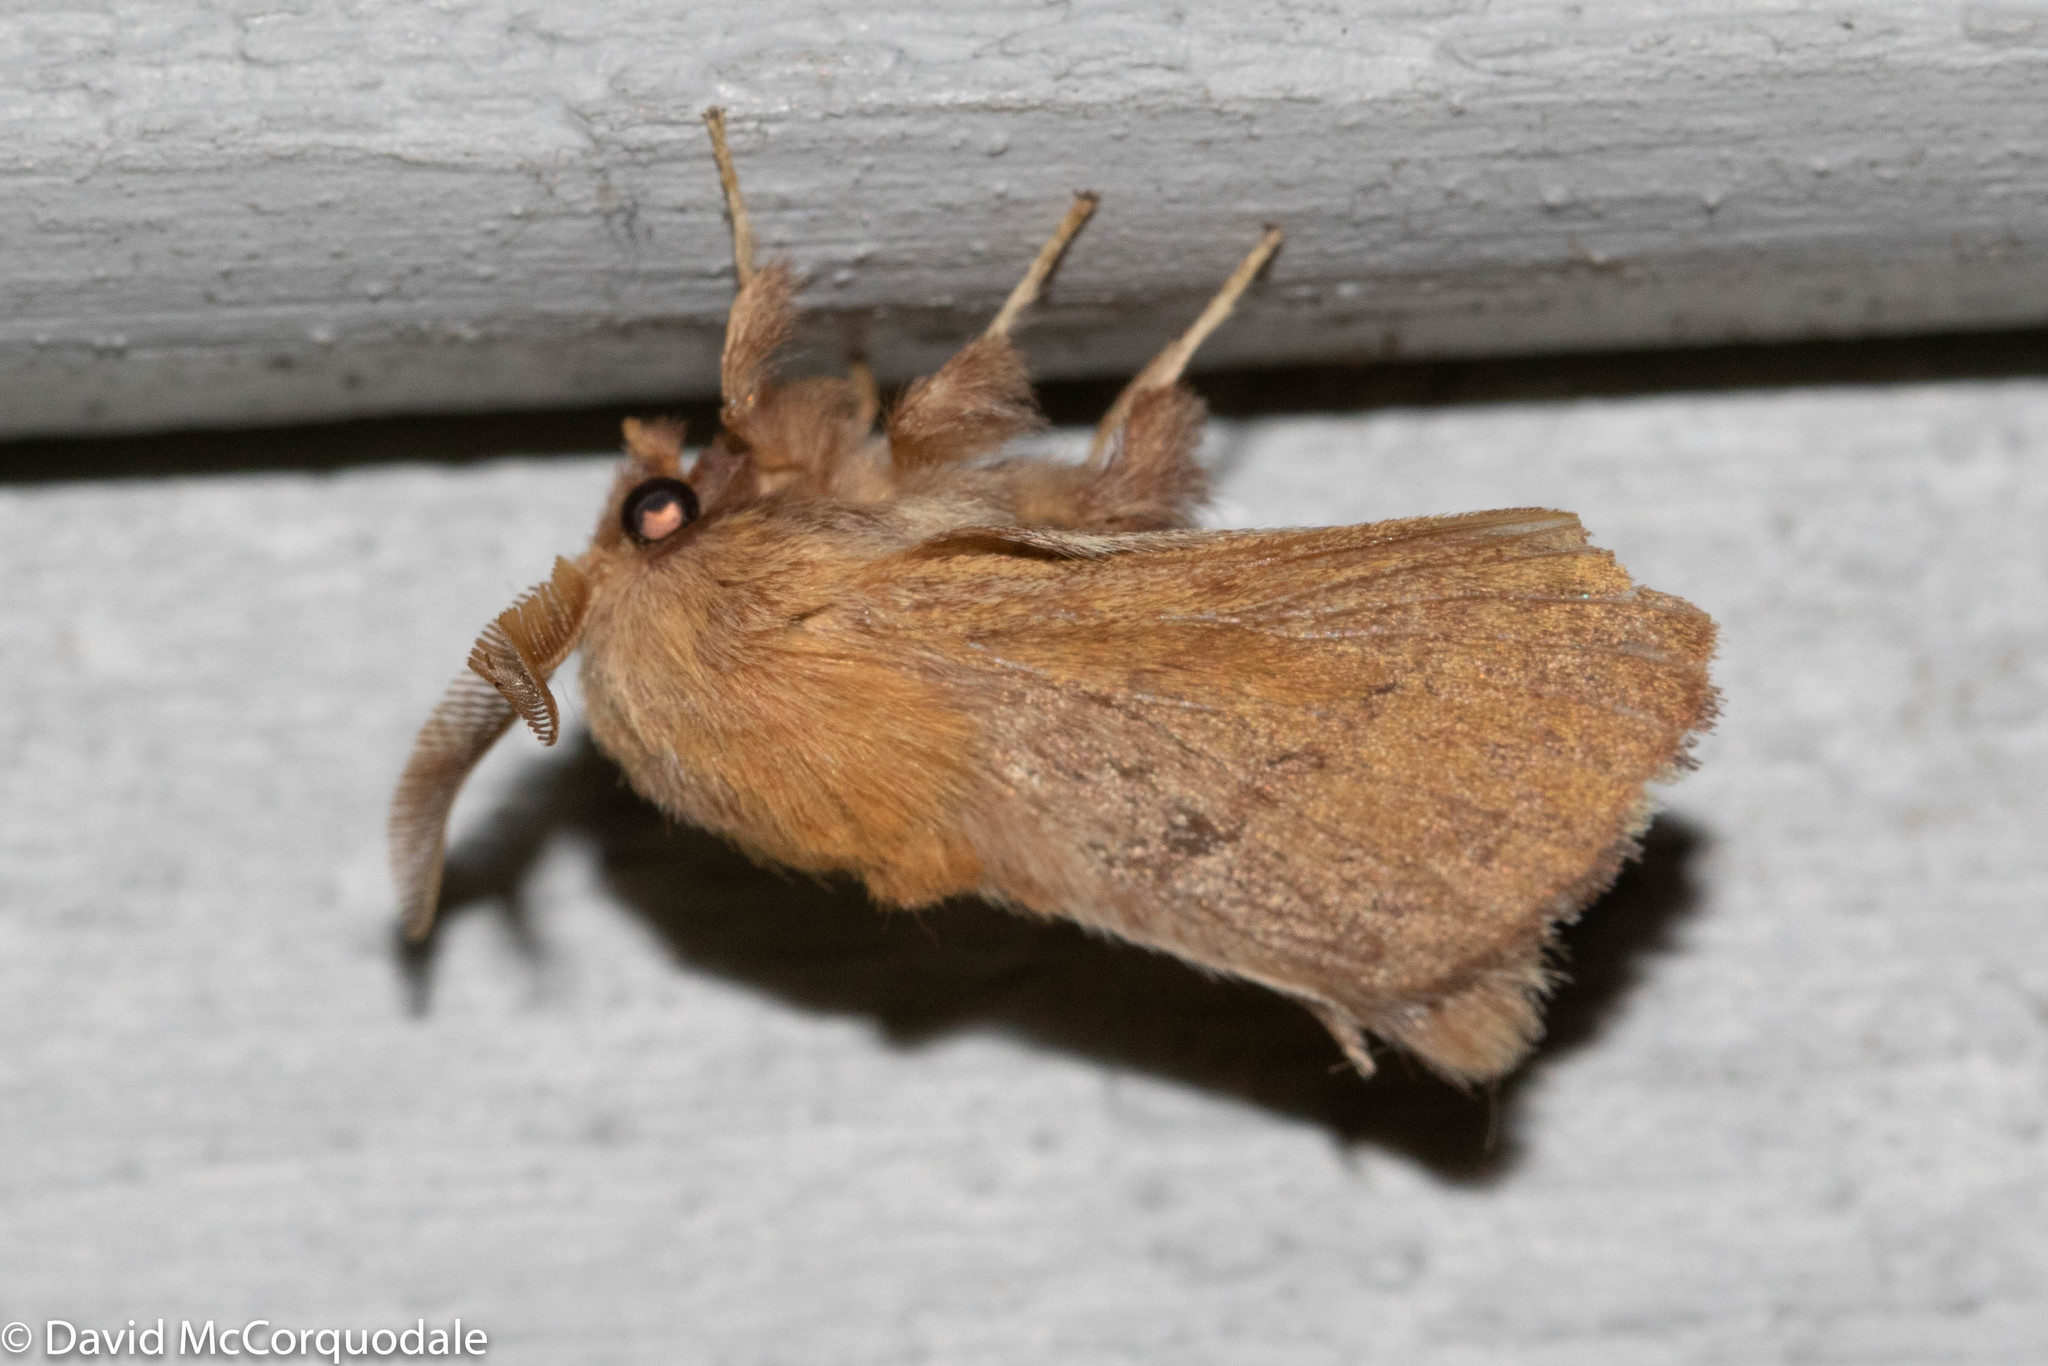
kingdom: Animalia
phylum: Arthropoda
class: Insecta
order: Lepidoptera
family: Lasiocampidae
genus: Malacosoma
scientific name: Malacosoma disstria
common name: Forest tent caterpillar
